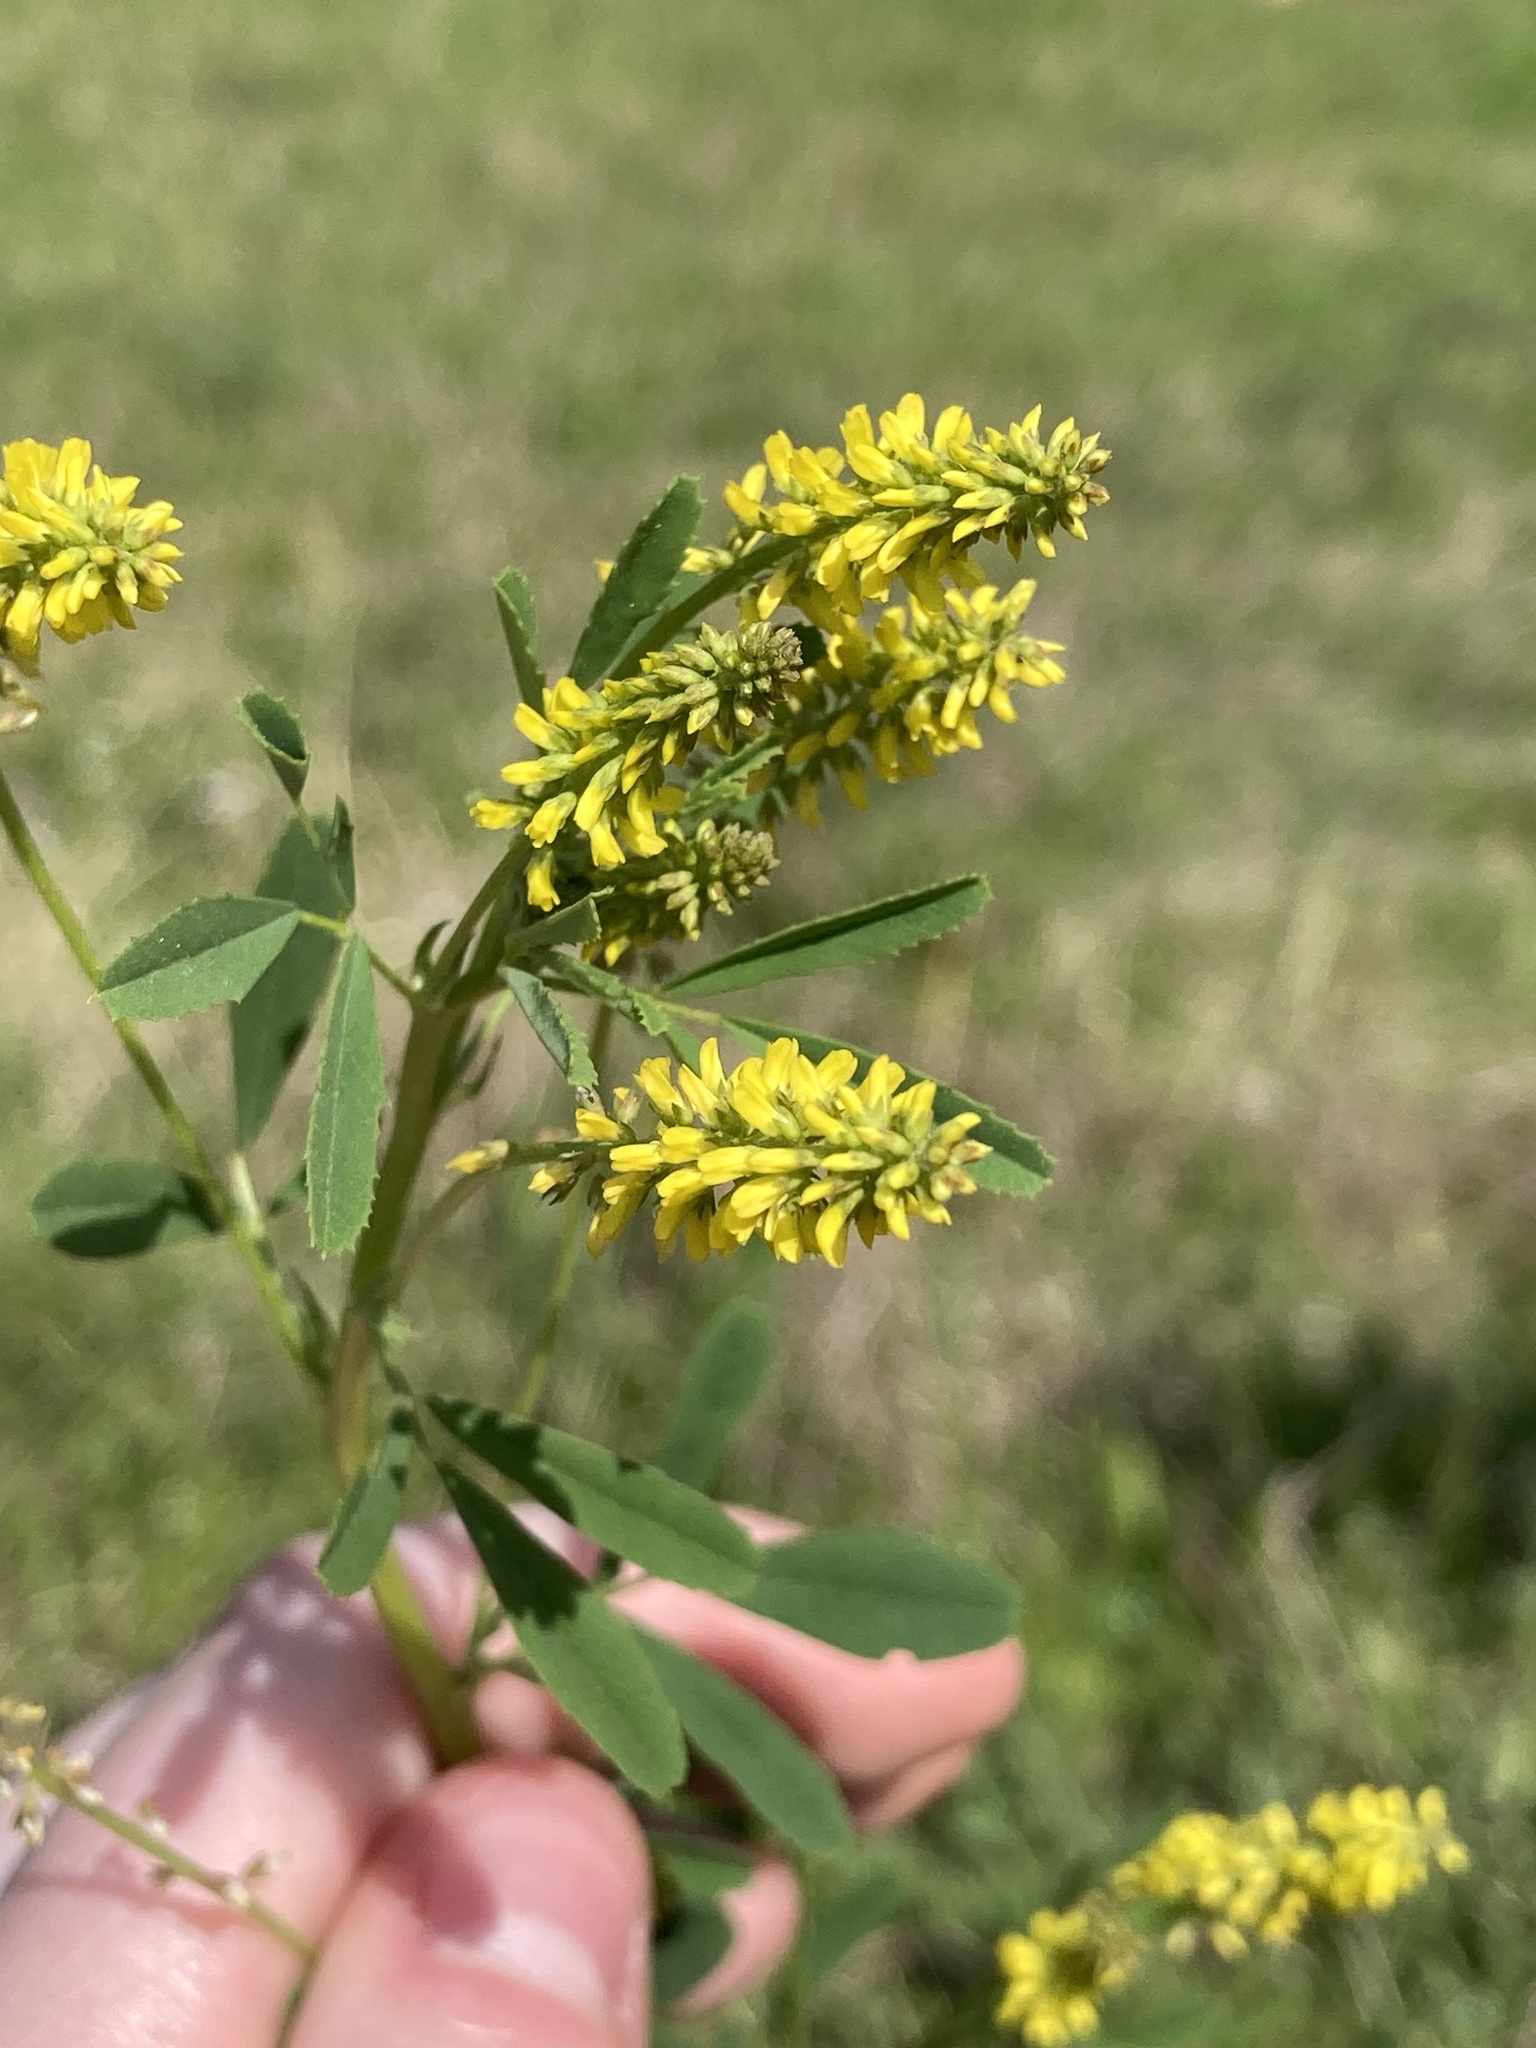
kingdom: Plantae
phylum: Tracheophyta
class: Magnoliopsida
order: Fabales
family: Fabaceae
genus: Melilotus
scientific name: Melilotus indicus
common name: Small melilot
